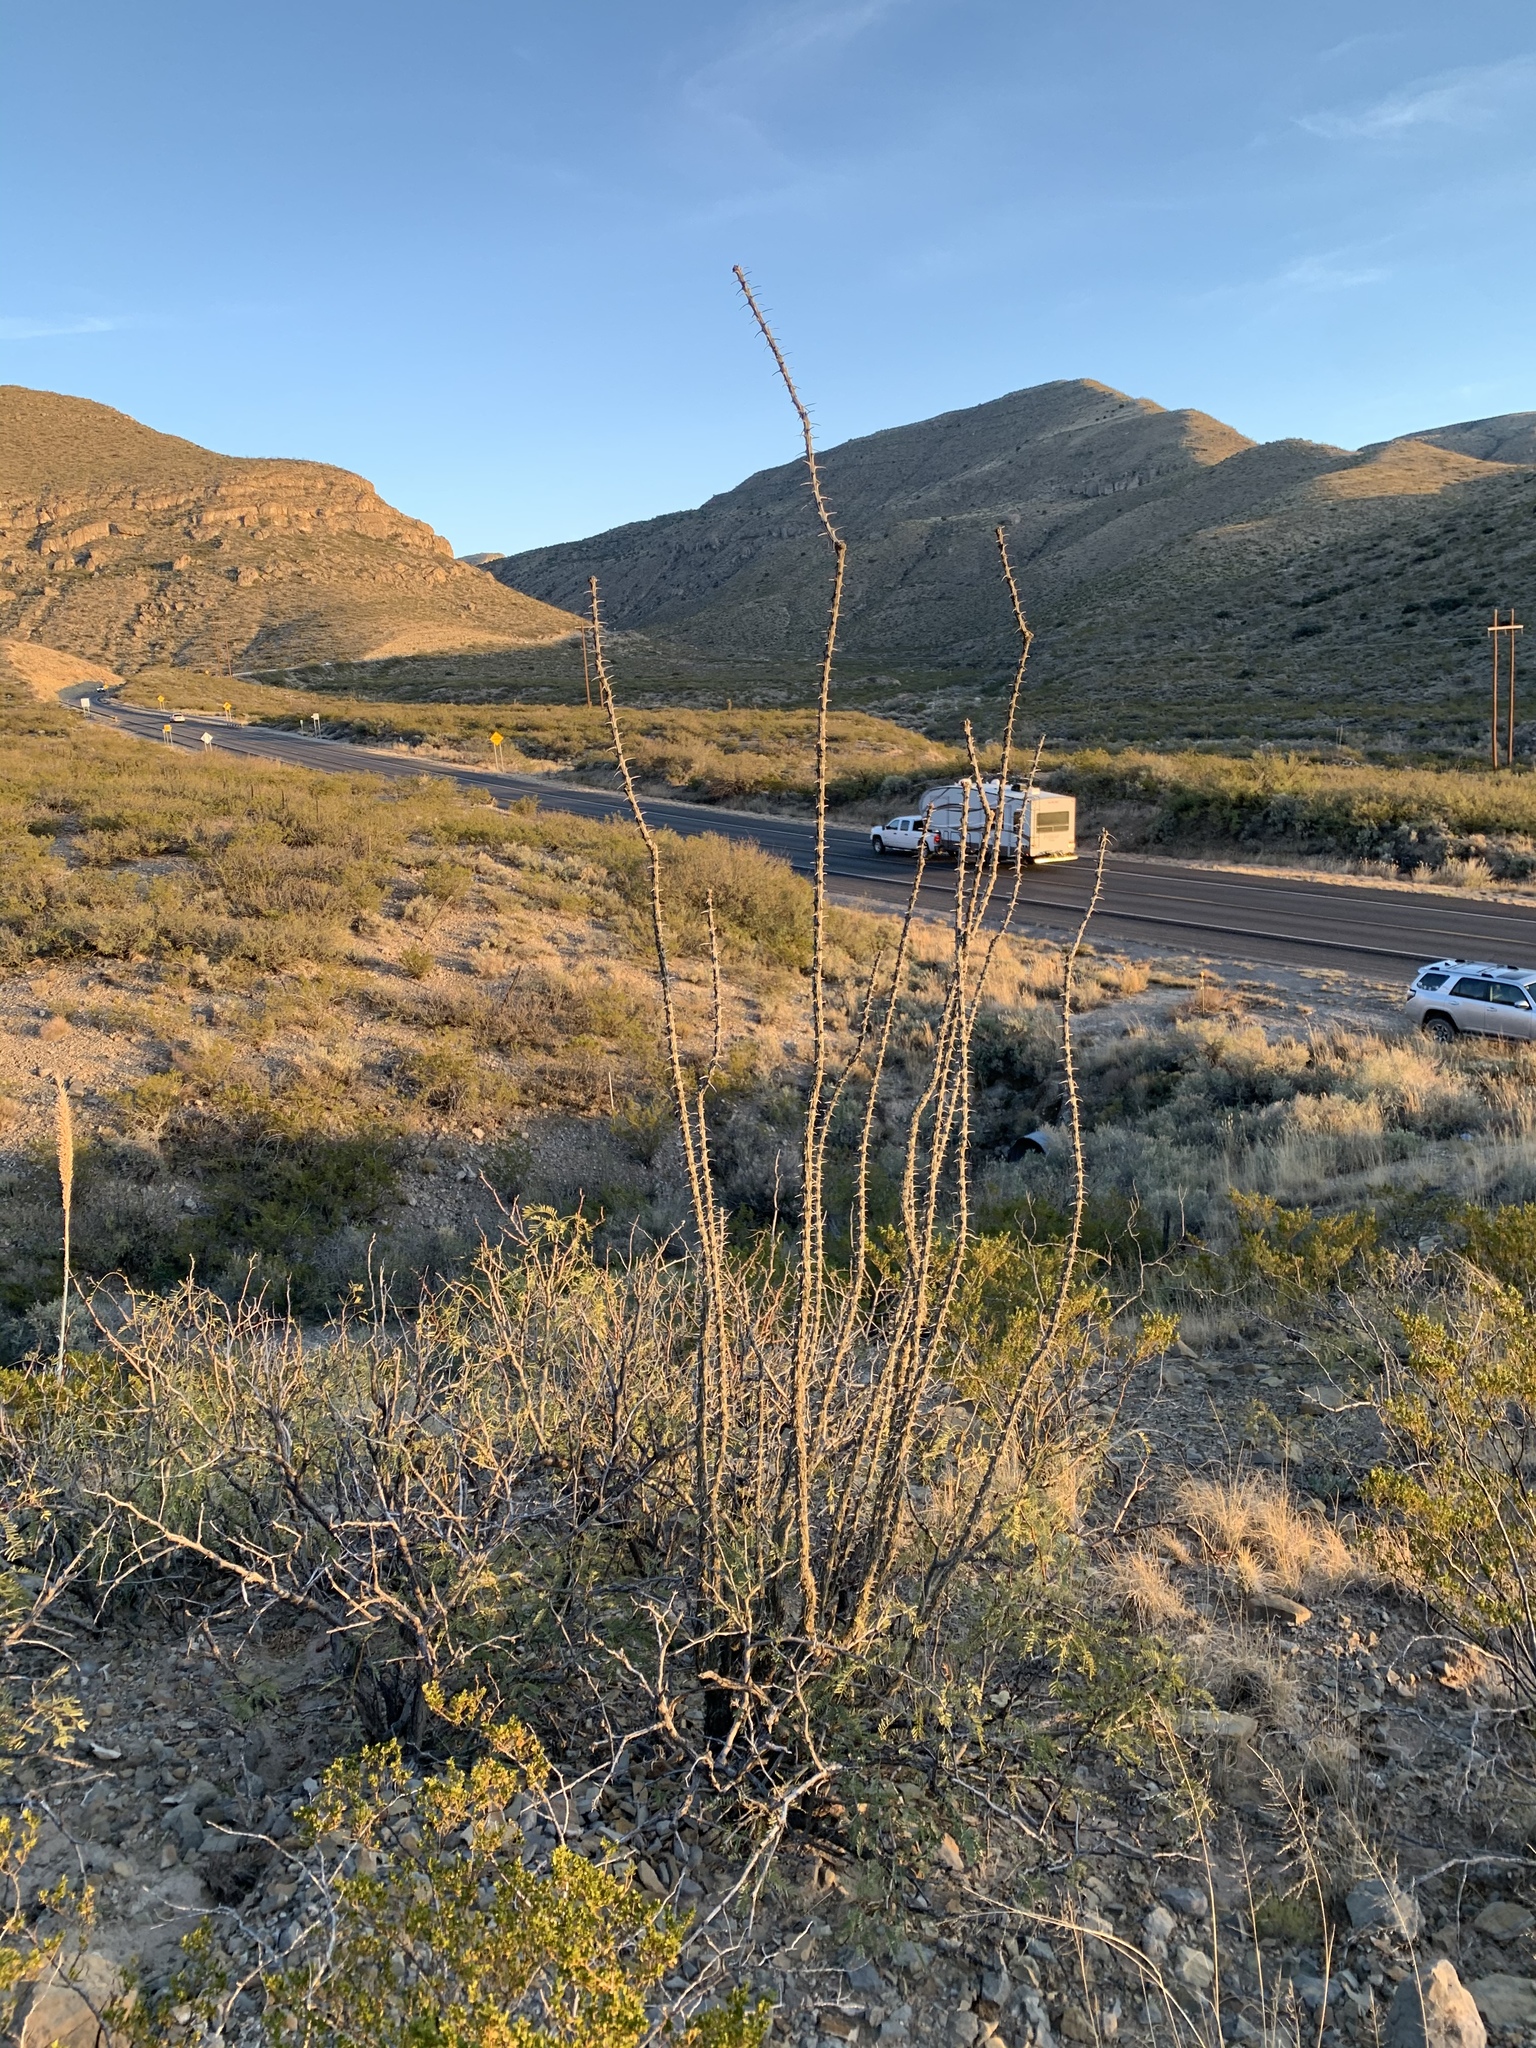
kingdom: Plantae
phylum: Tracheophyta
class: Magnoliopsida
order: Ericales
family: Fouquieriaceae
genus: Fouquieria
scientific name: Fouquieria splendens
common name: Vine-cactus
